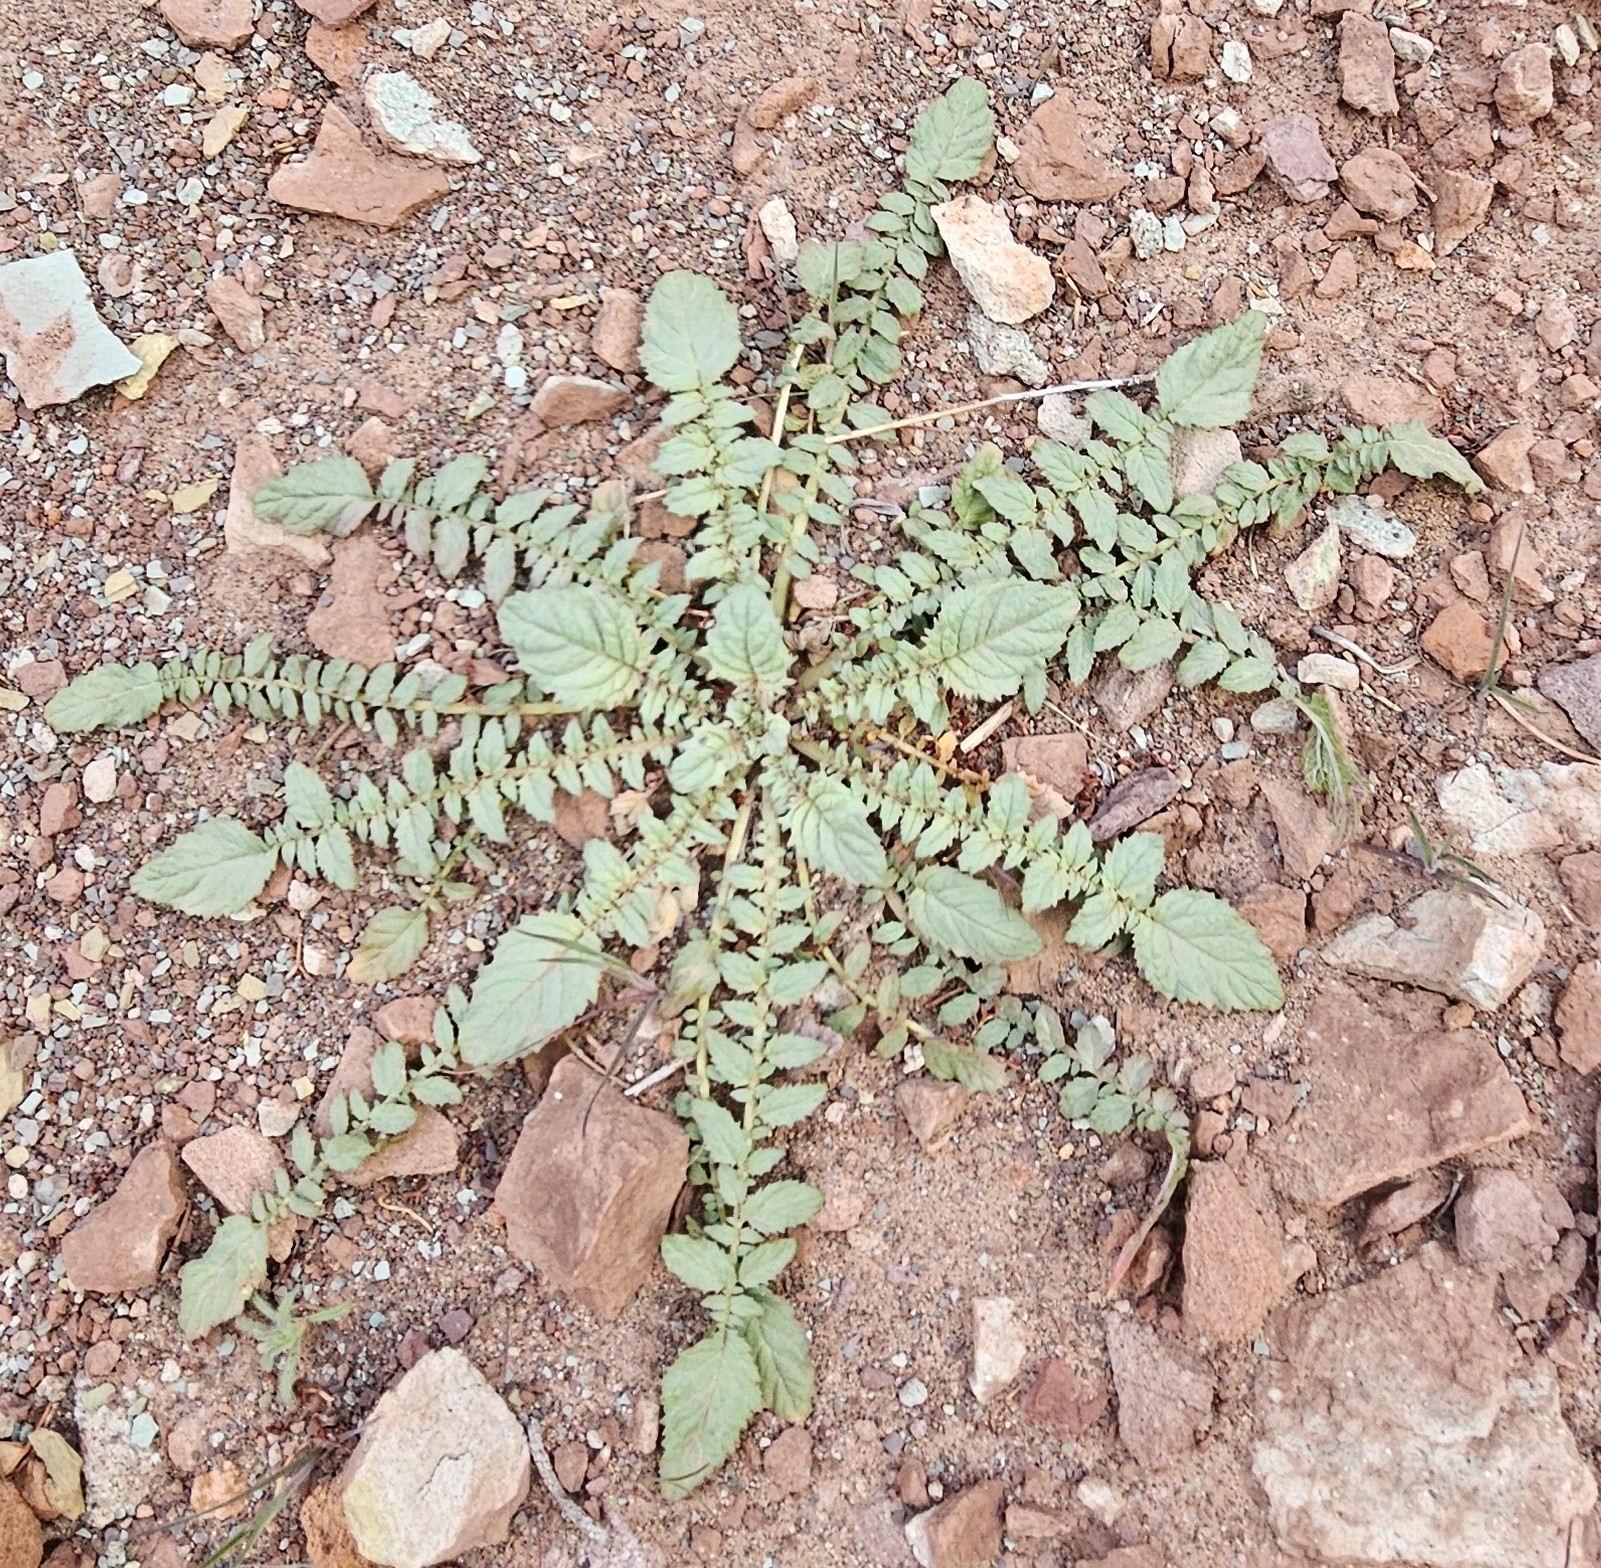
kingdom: Plantae
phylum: Tracheophyta
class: Magnoliopsida
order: Myrtales
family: Onagraceae
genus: Chylismia
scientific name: Chylismia multijuga
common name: Froststem suncup
